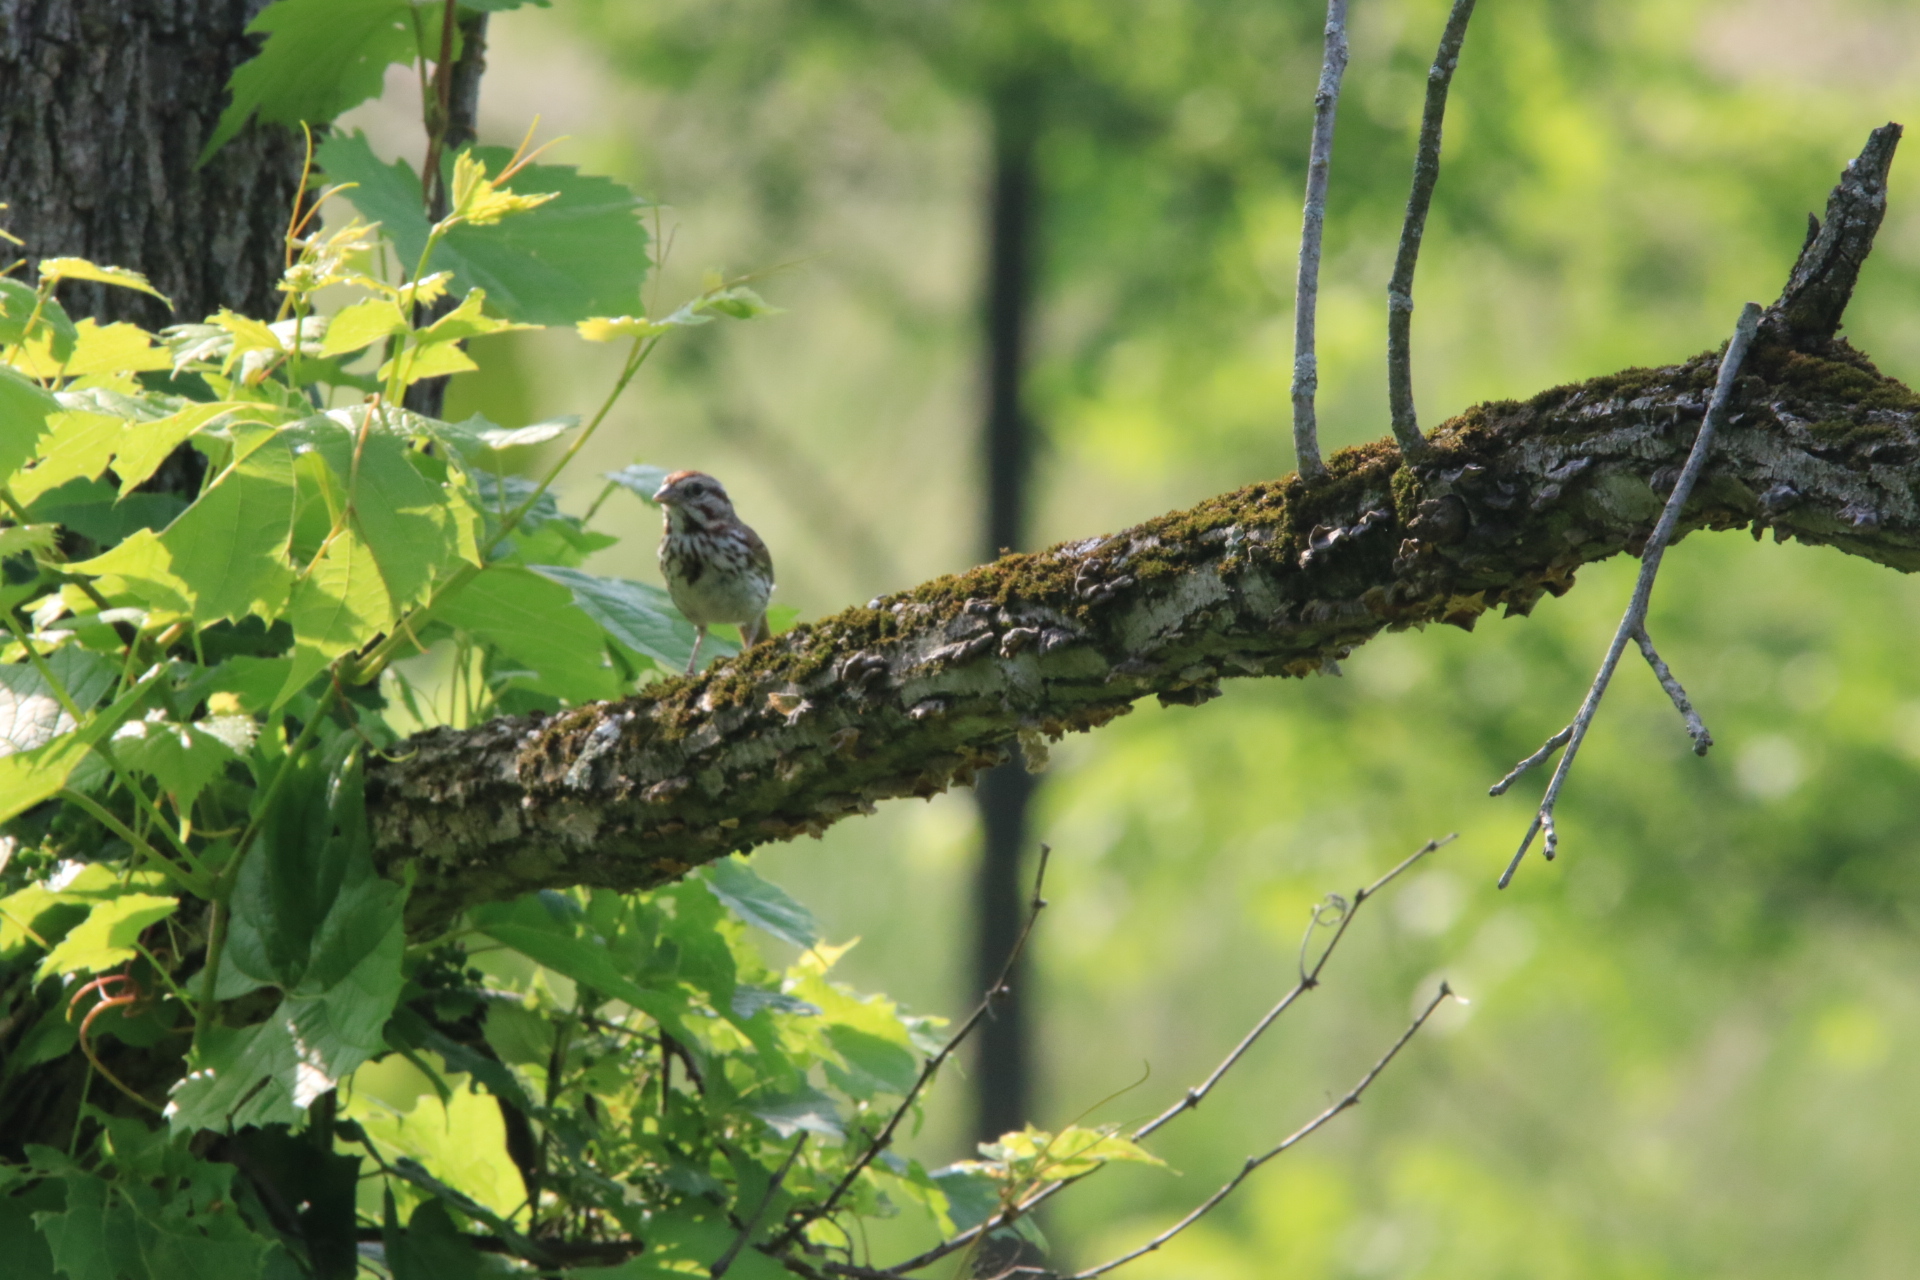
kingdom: Animalia
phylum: Chordata
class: Aves
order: Passeriformes
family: Passerellidae
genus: Melospiza
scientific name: Melospiza melodia
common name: Song sparrow
